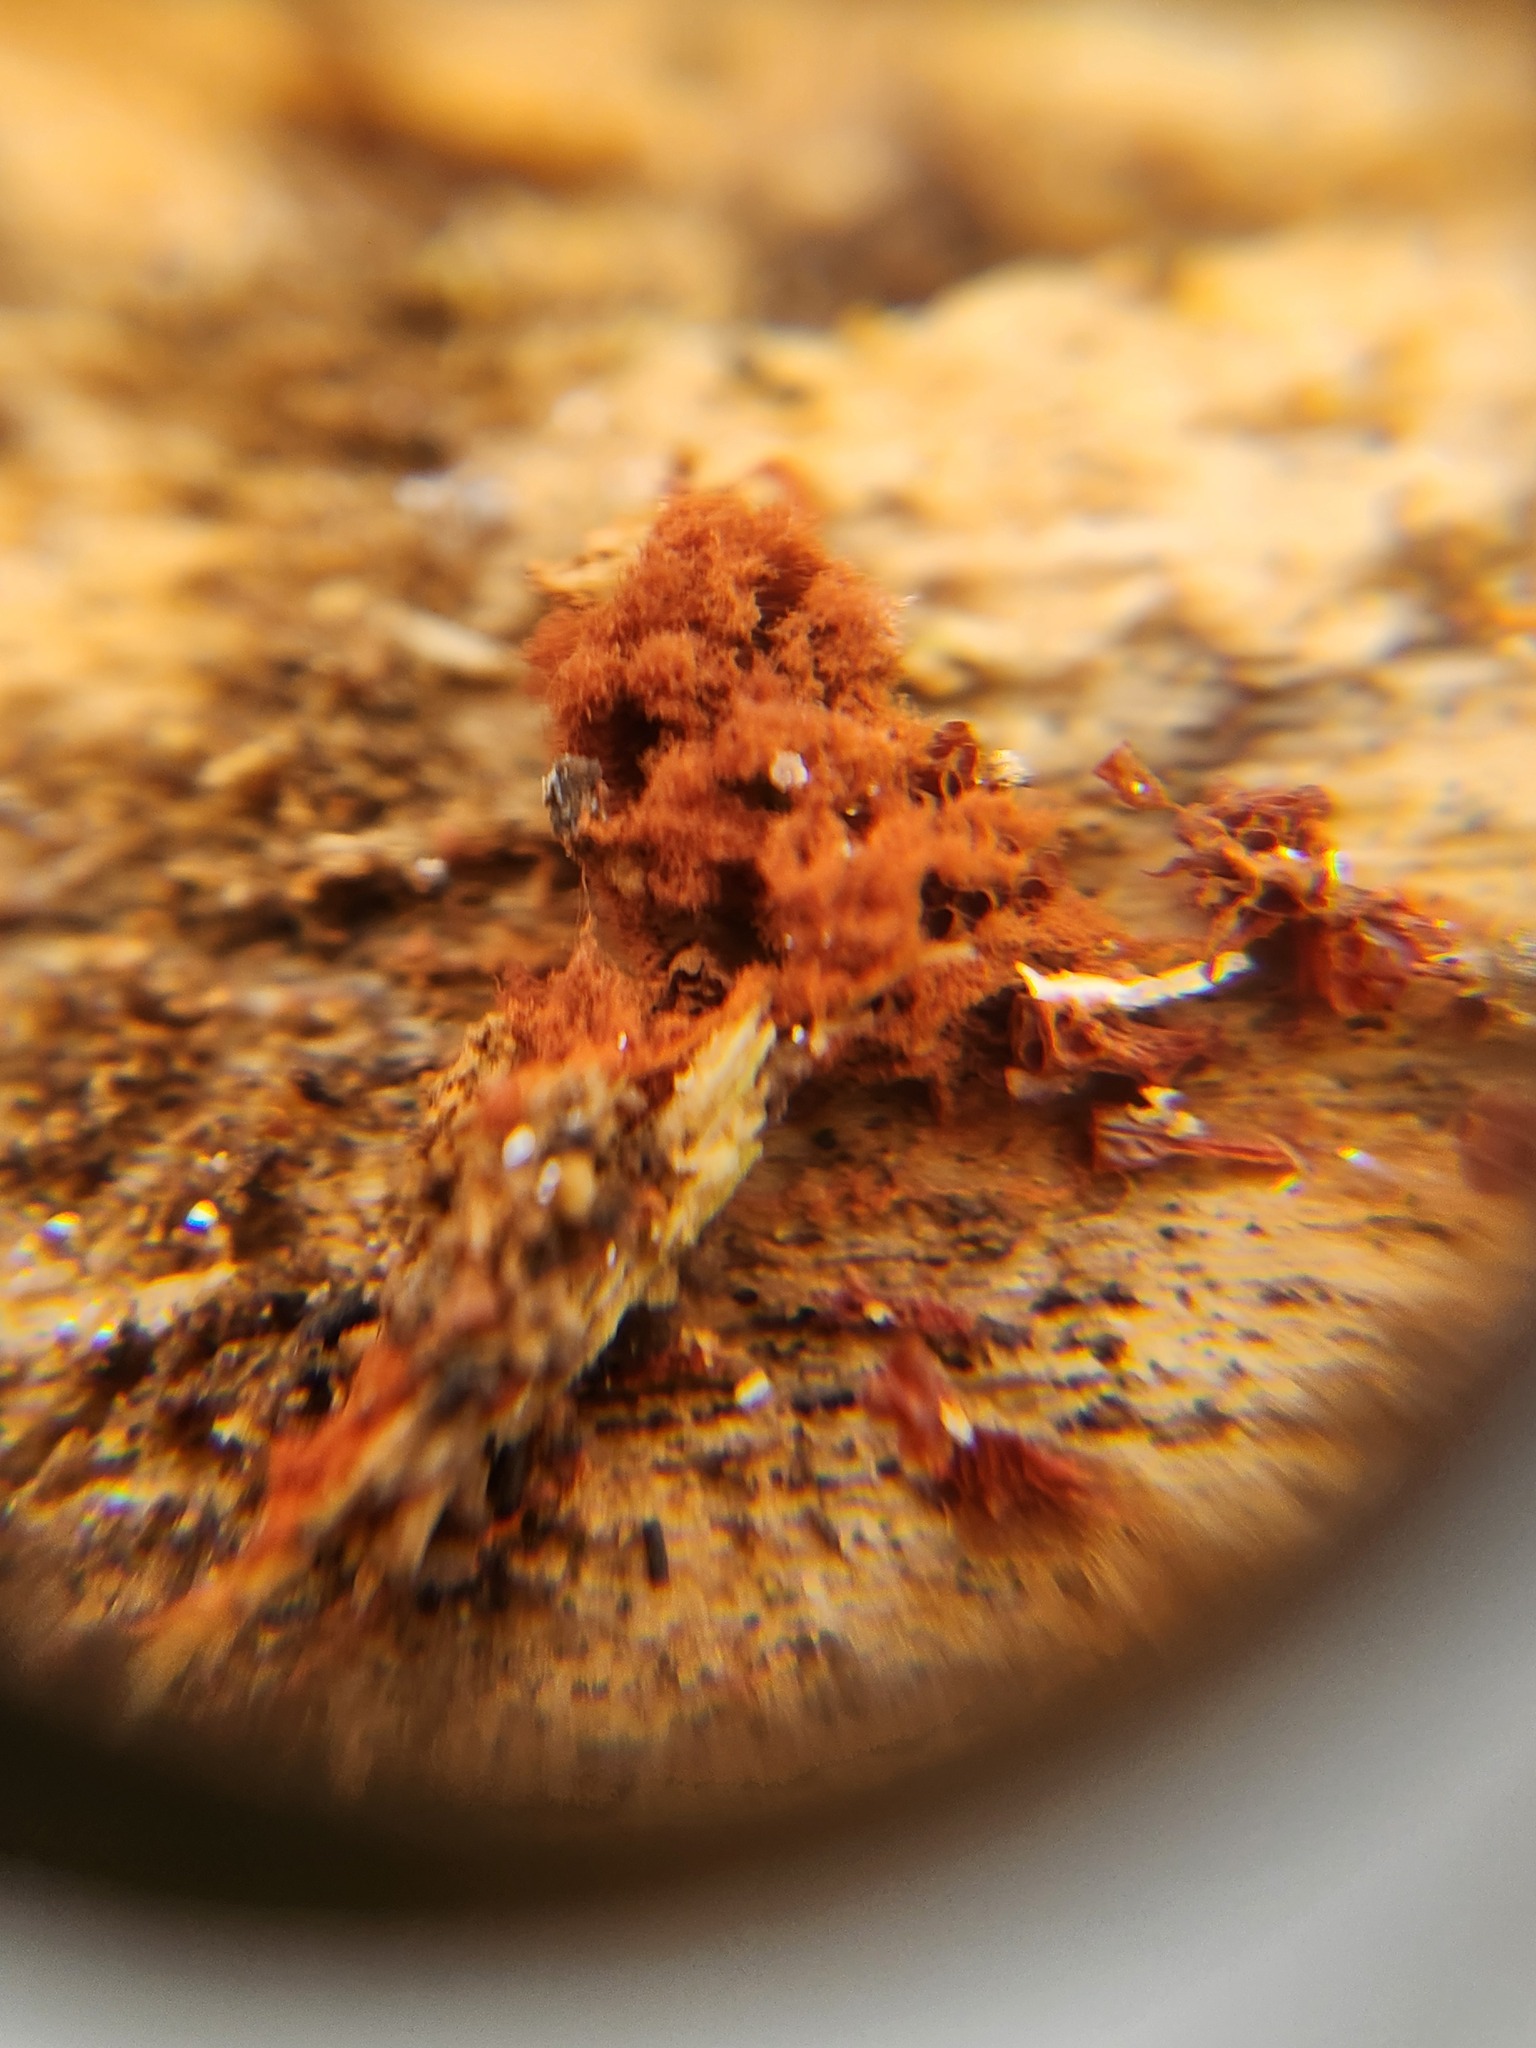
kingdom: Protozoa
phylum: Mycetozoa
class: Myxomycetes
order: Trichiales
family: Trichiaceae
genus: Metatrichia
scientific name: Metatrichia vesparia
